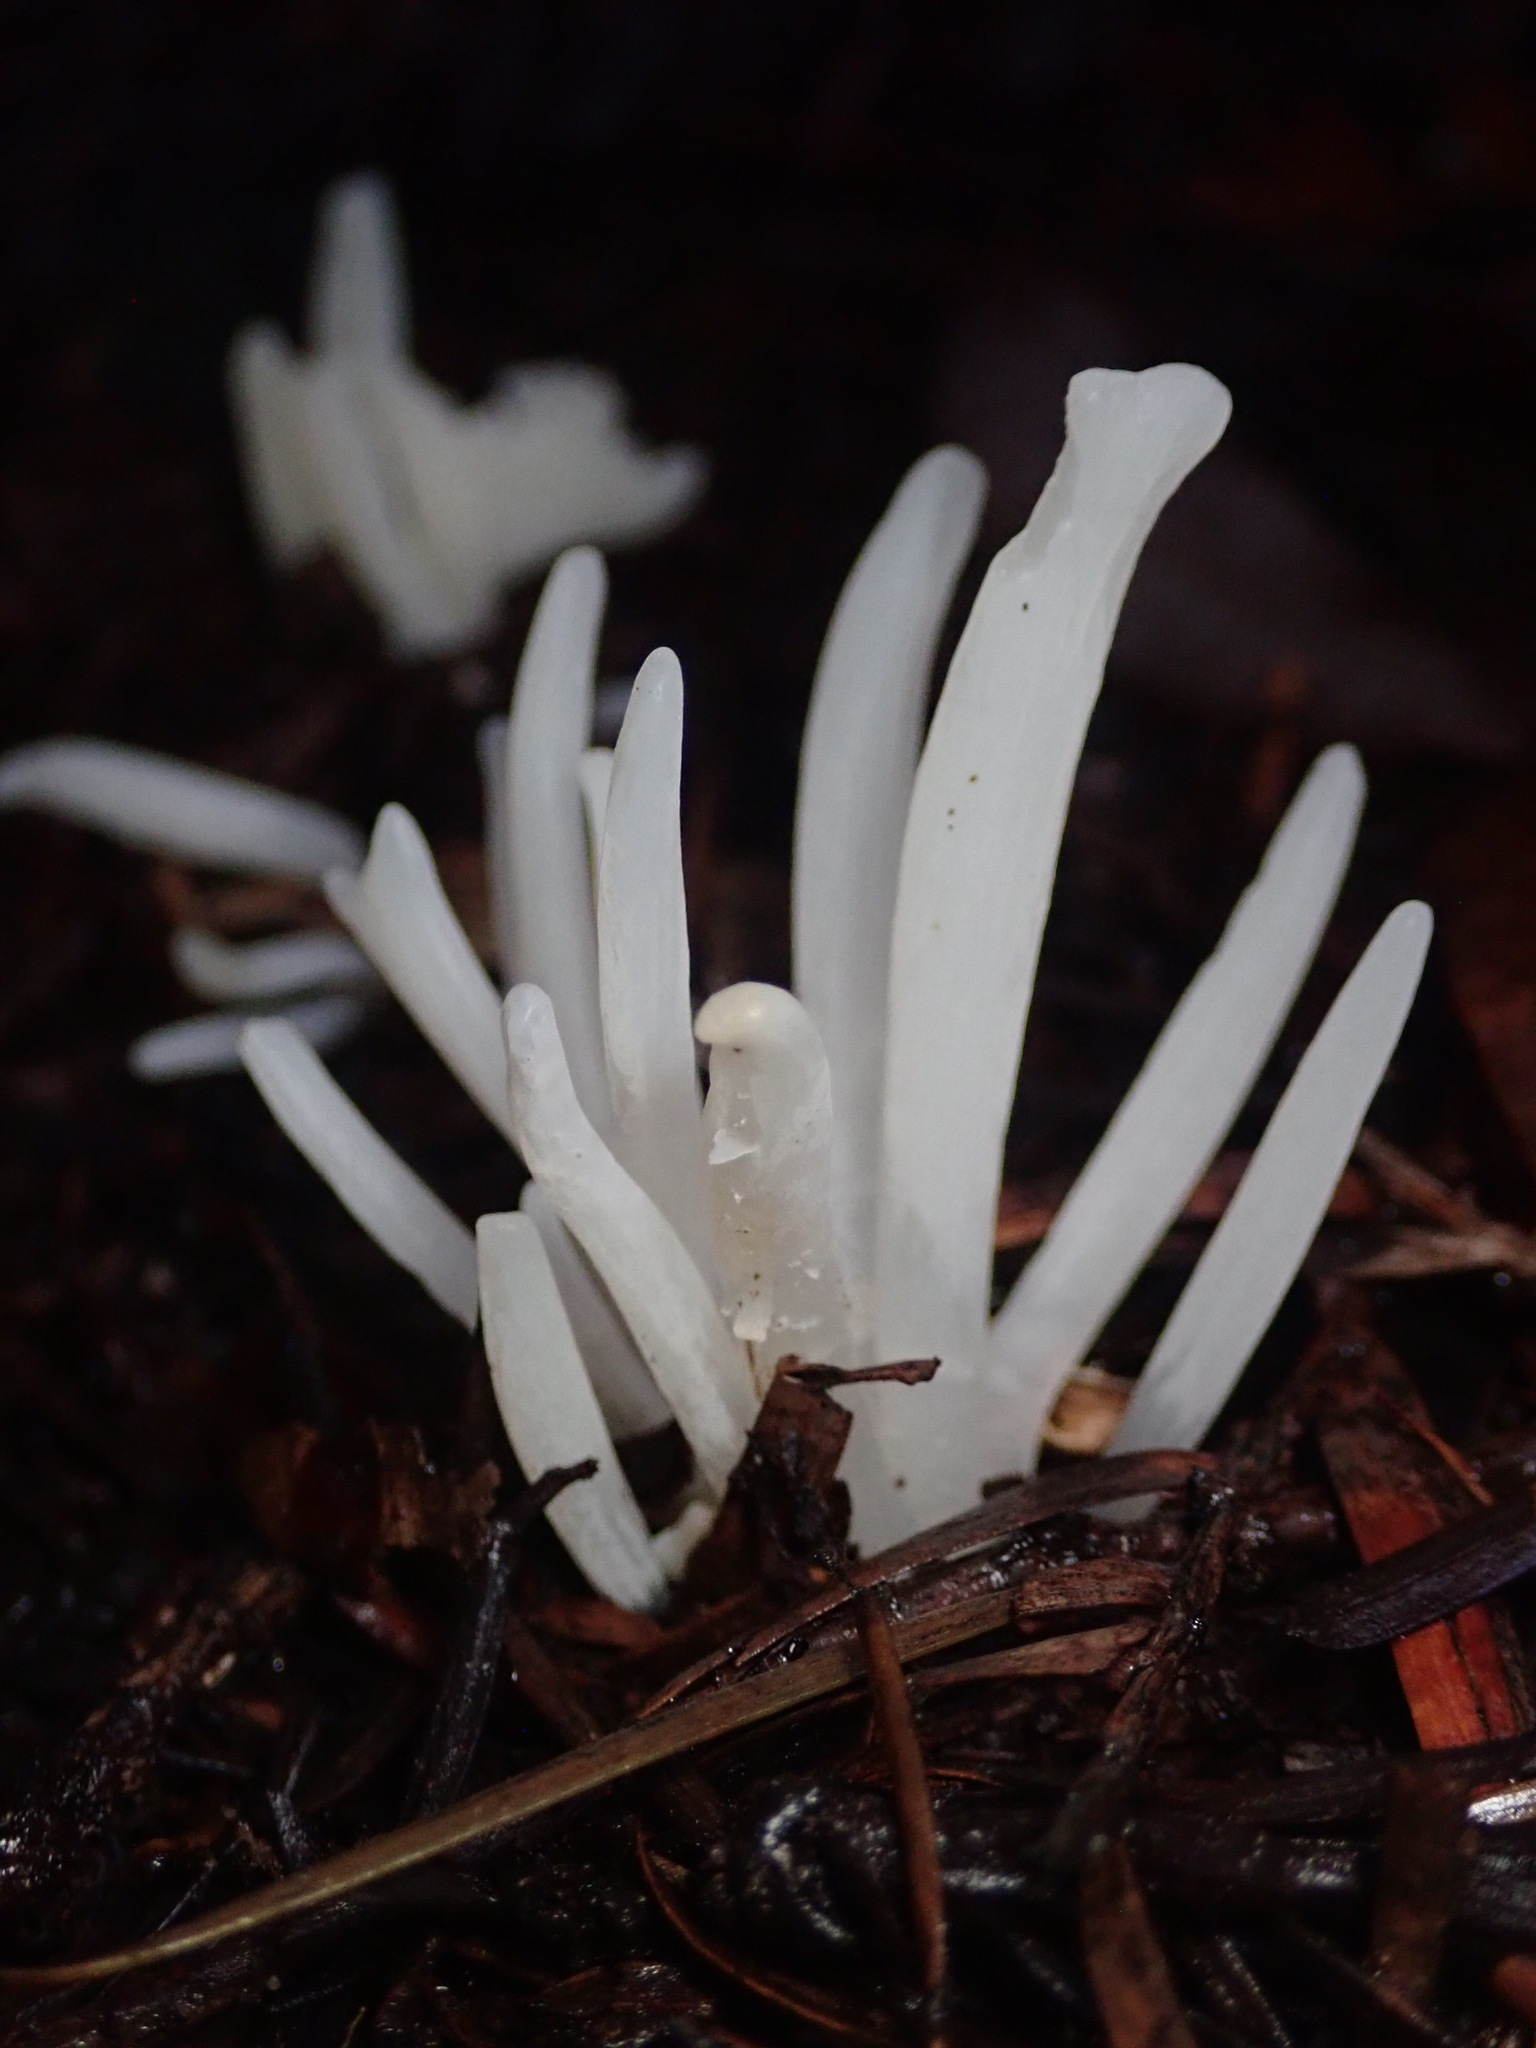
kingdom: Fungi
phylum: Basidiomycota
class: Agaricomycetes
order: Agaricales
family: Clavariaceae
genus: Clavaria
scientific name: Clavaria fragilis
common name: White spindles
